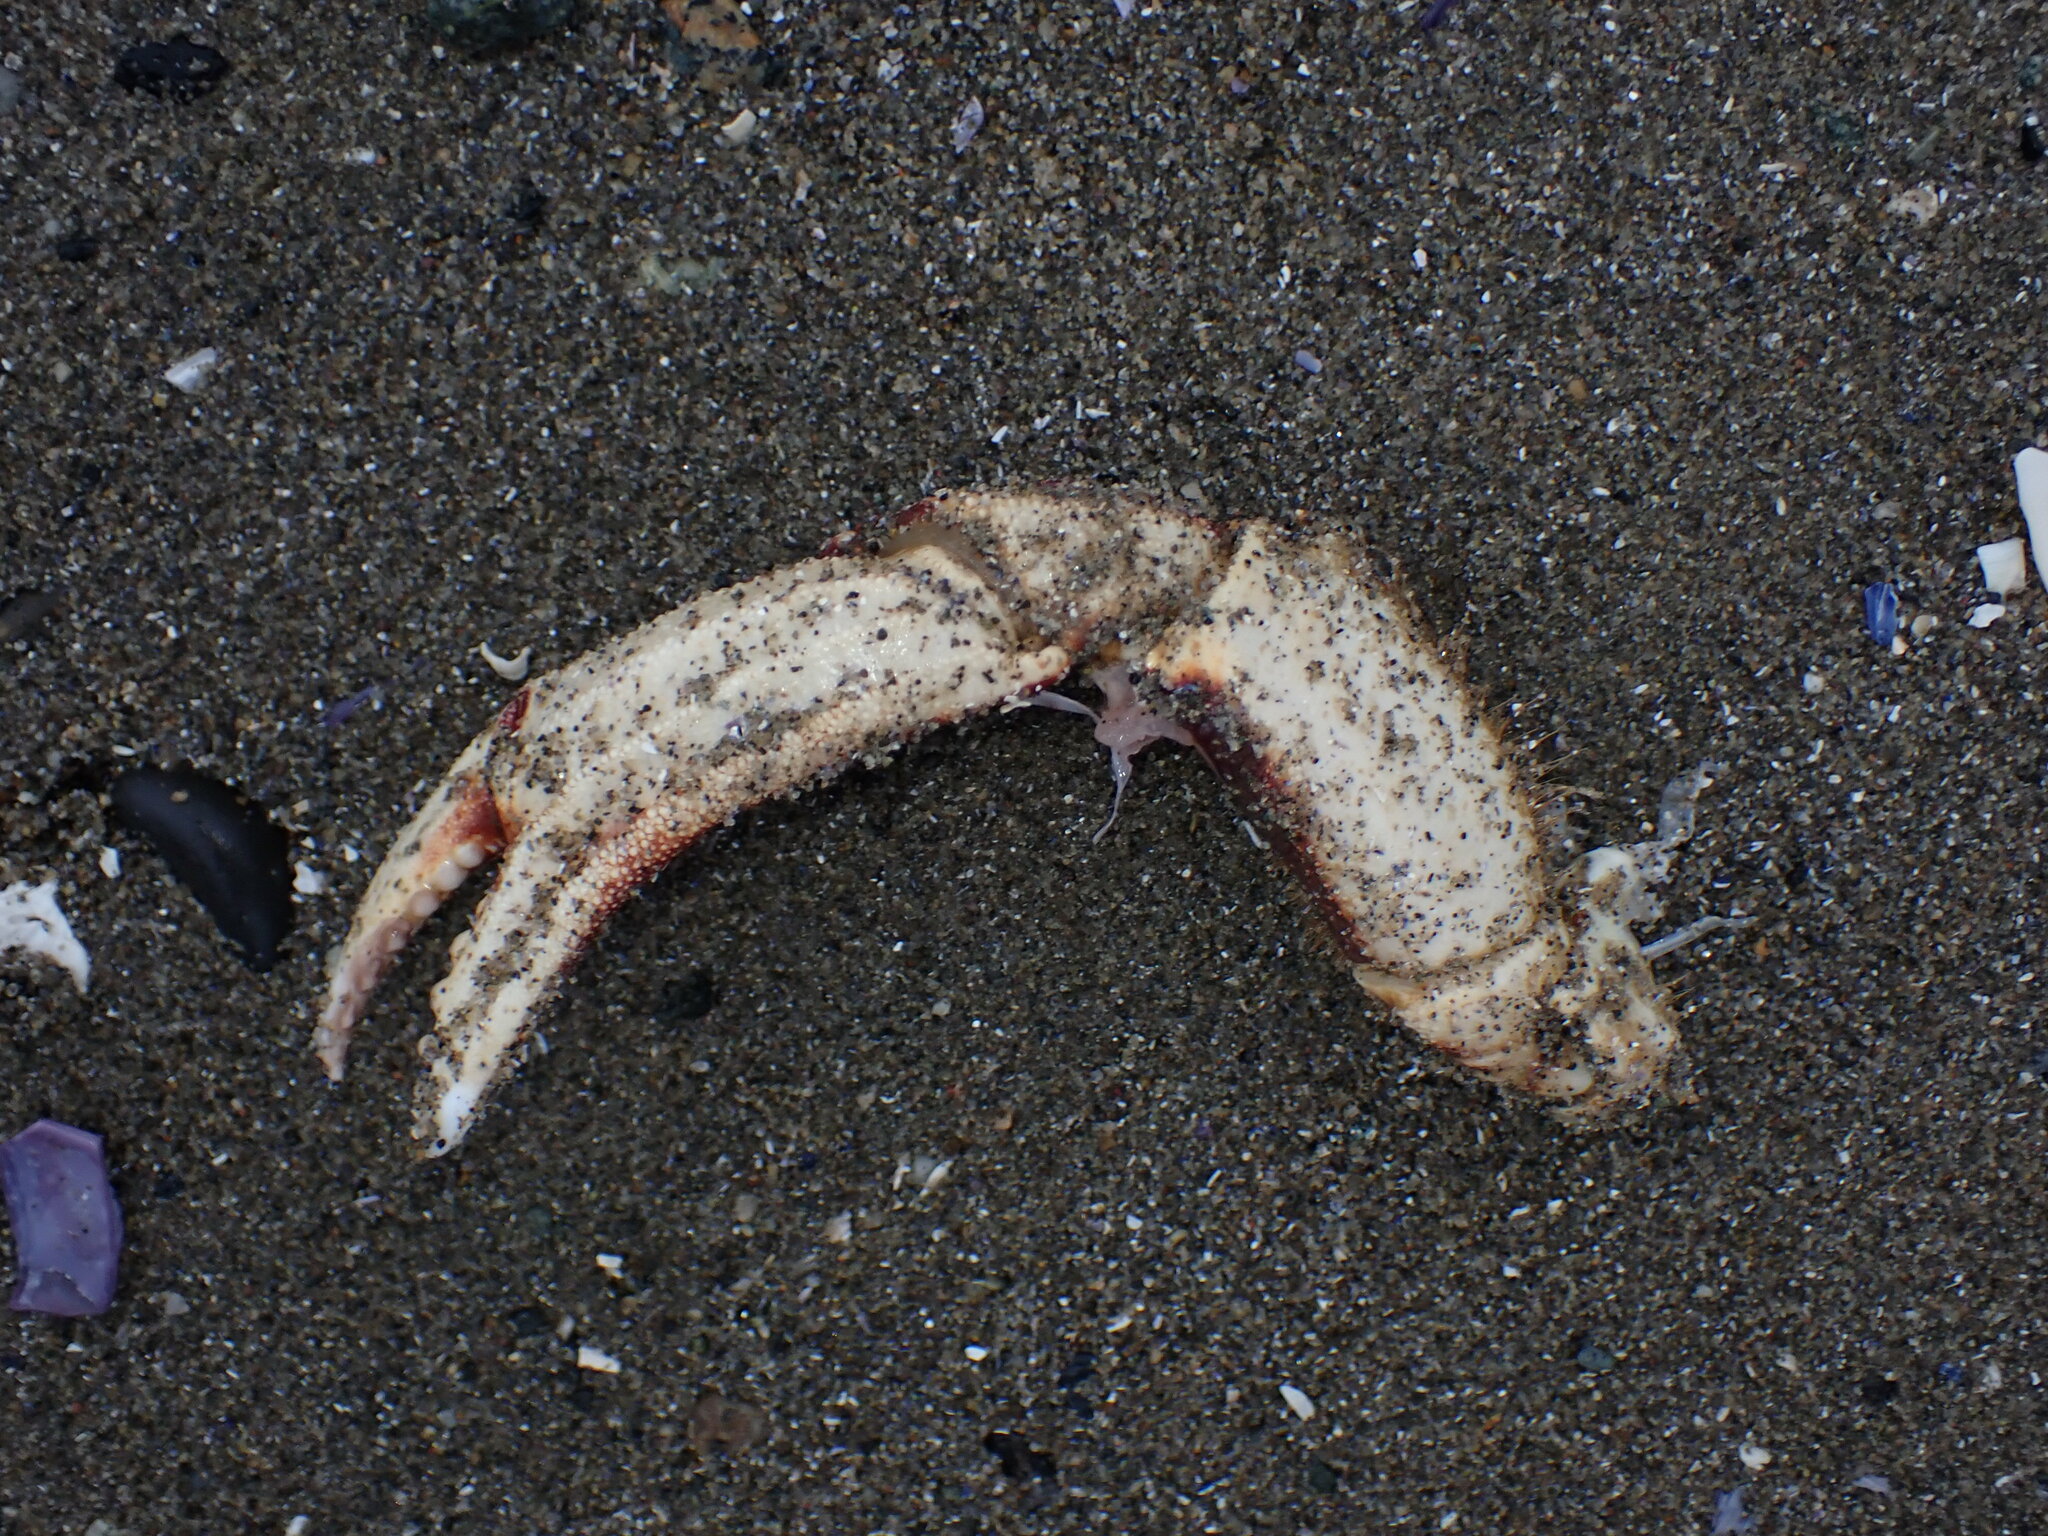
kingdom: Animalia
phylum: Arthropoda
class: Malacostraca
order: Decapoda
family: Cancridae
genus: Metacarcinus
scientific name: Metacarcinus magister
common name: Californian crab
